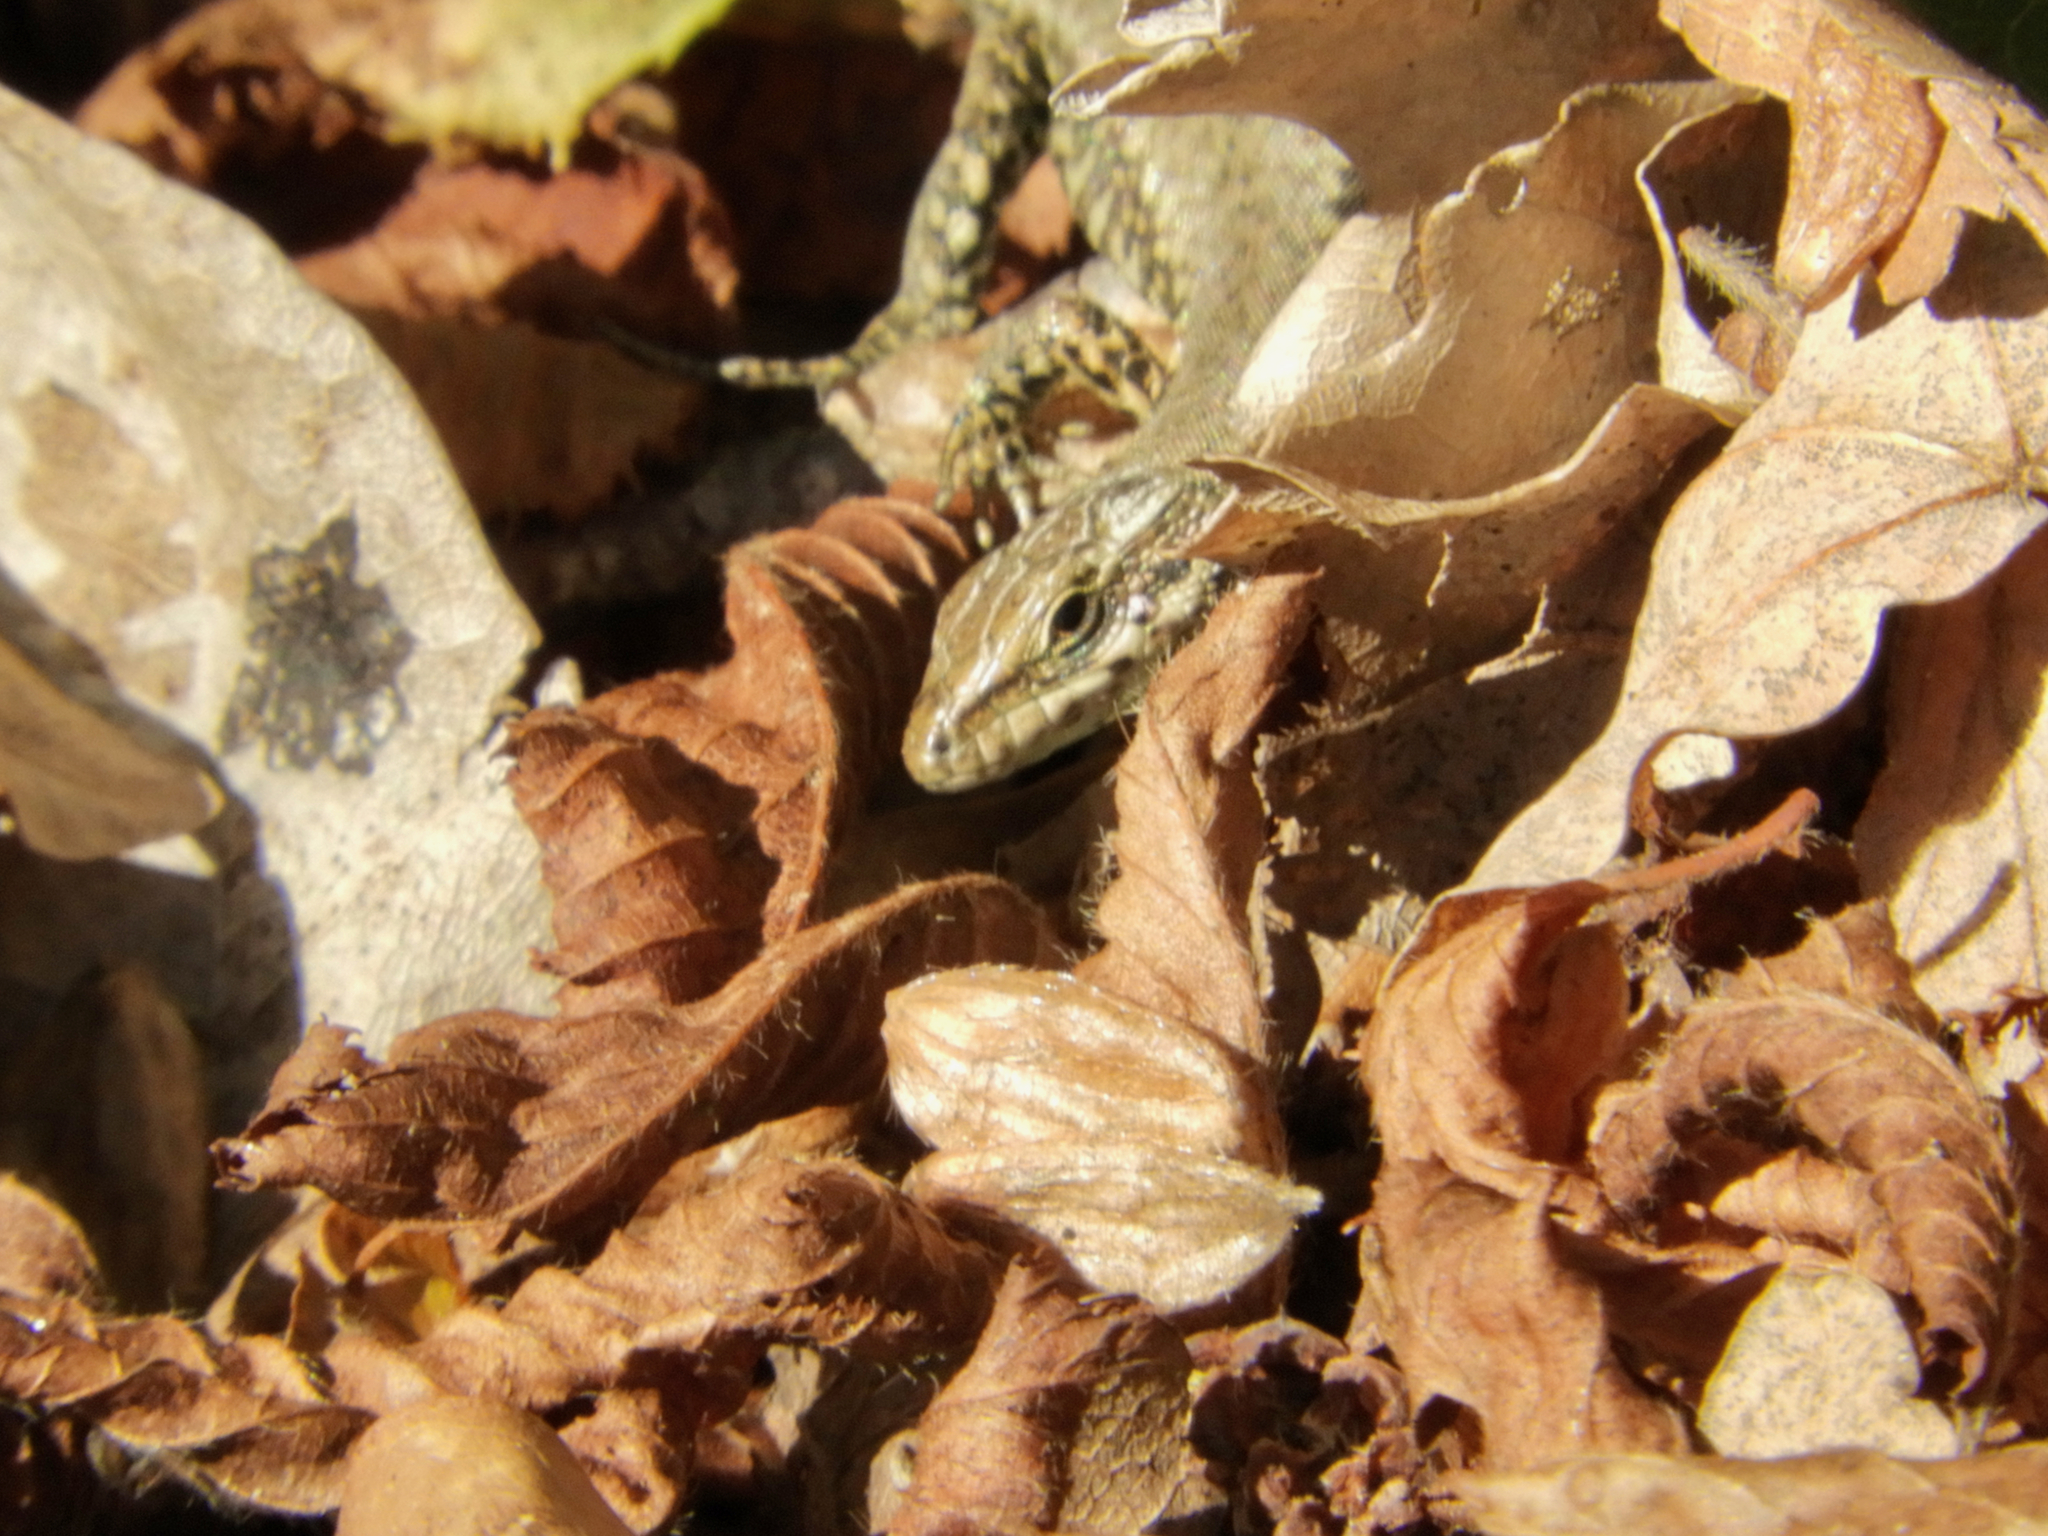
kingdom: Animalia
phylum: Chordata
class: Squamata
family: Lacertidae
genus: Podarcis
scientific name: Podarcis muralis
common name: Common wall lizard
